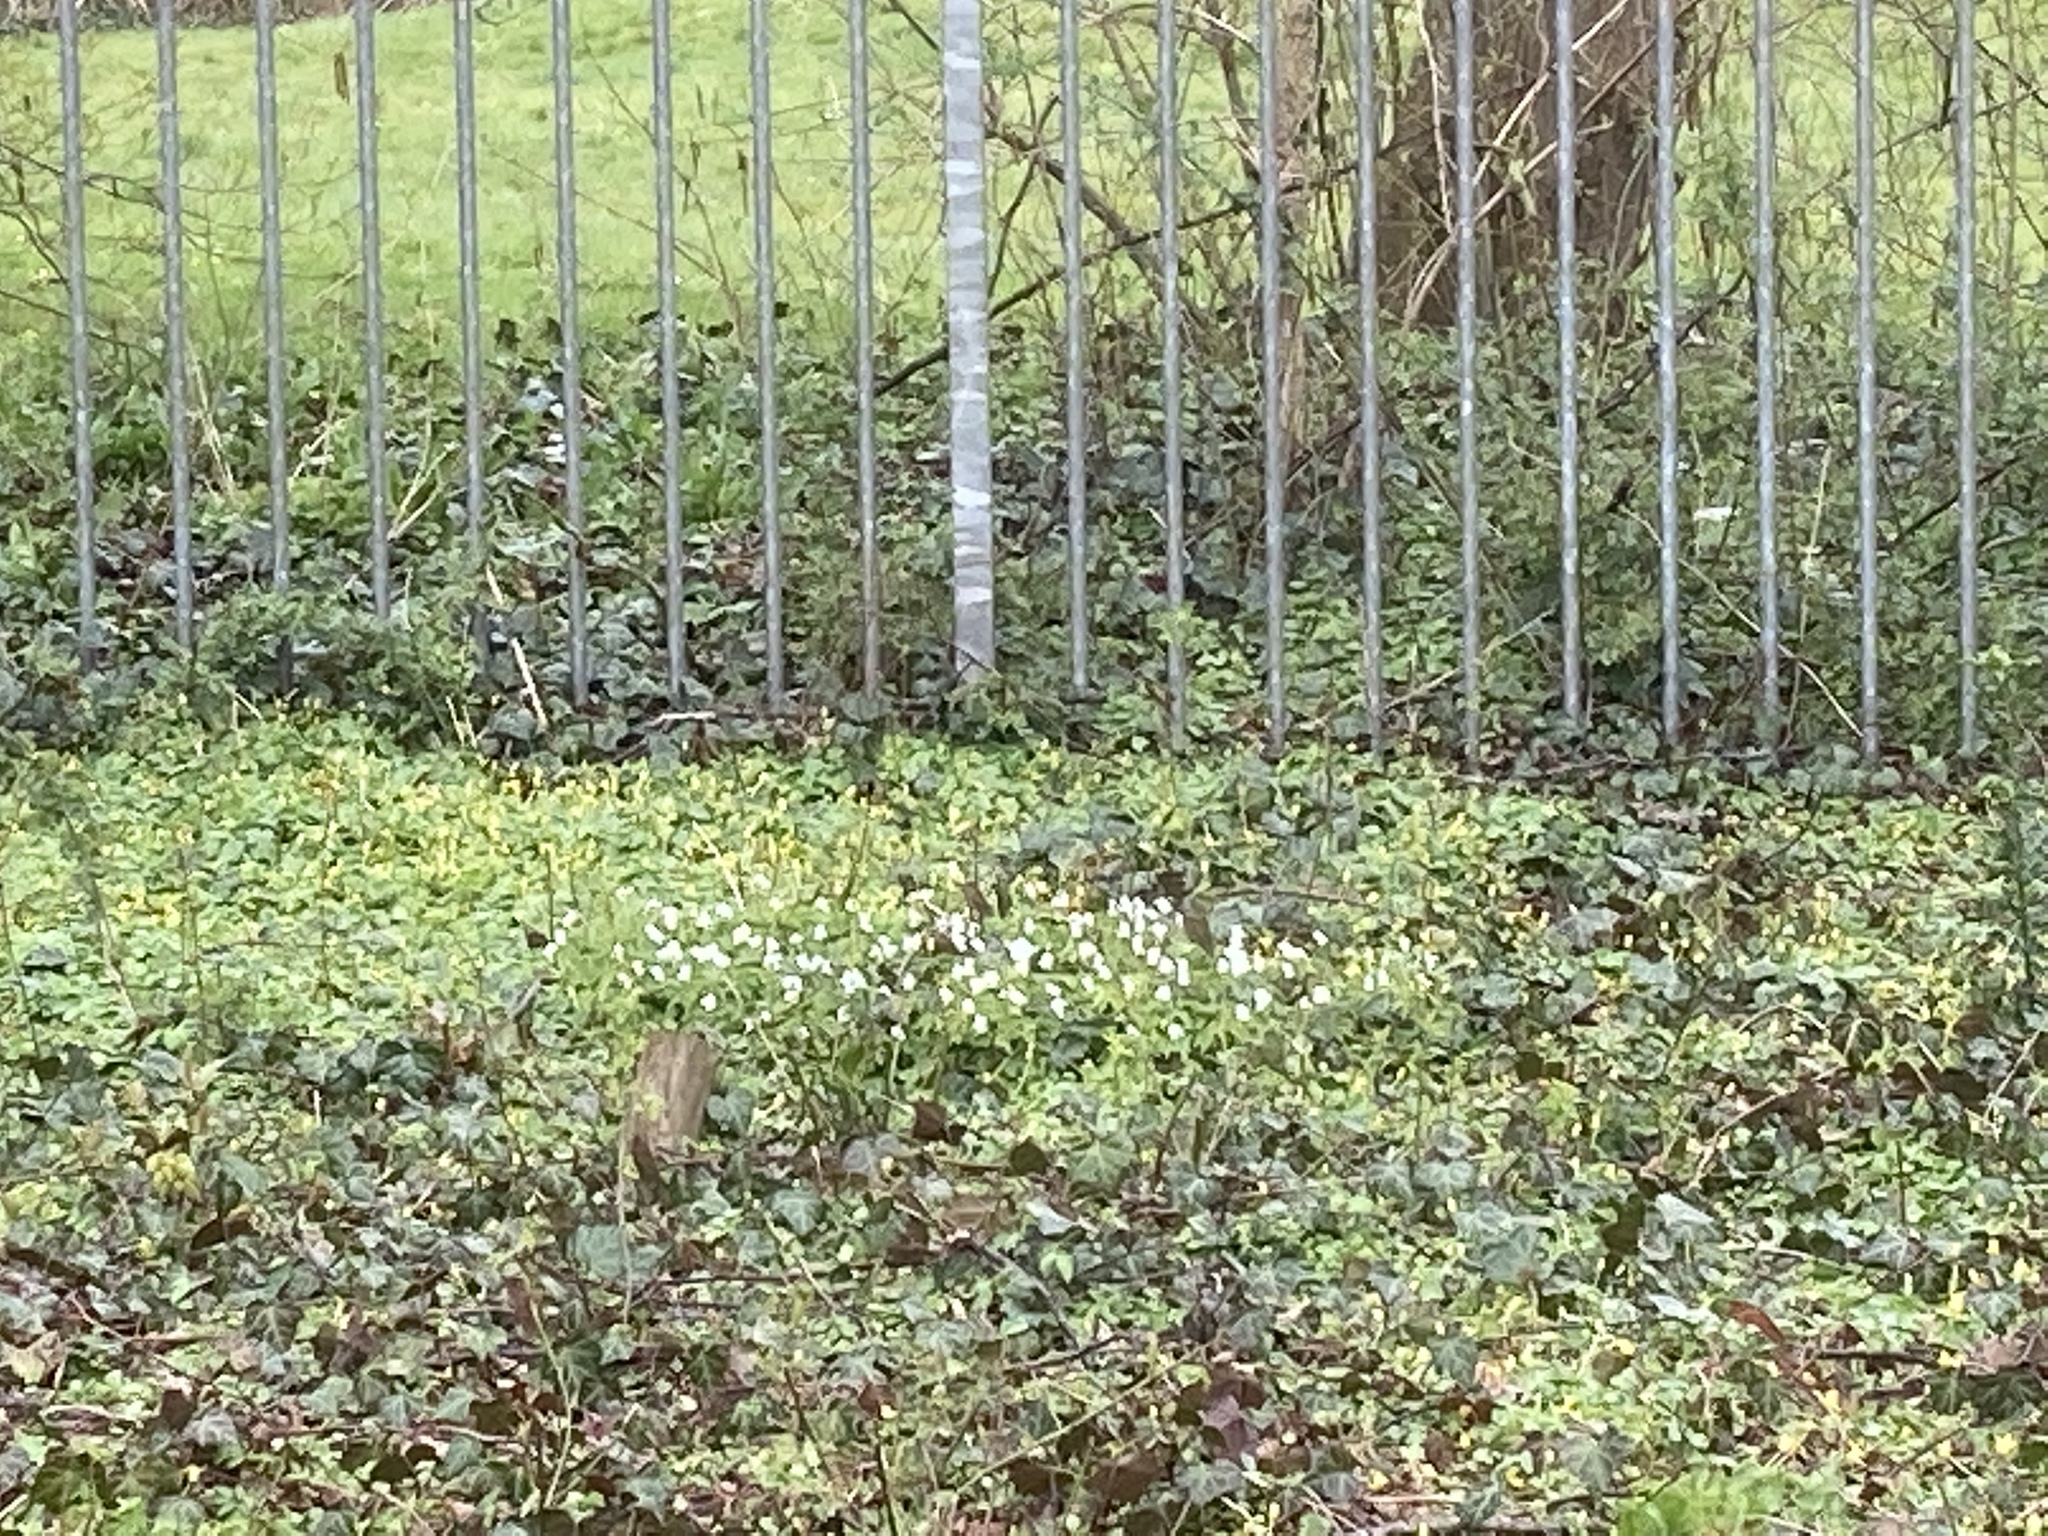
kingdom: Plantae
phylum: Tracheophyta
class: Magnoliopsida
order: Ranunculales
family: Ranunculaceae
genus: Anemone
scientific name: Anemone nemorosa
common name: Wood anemone
